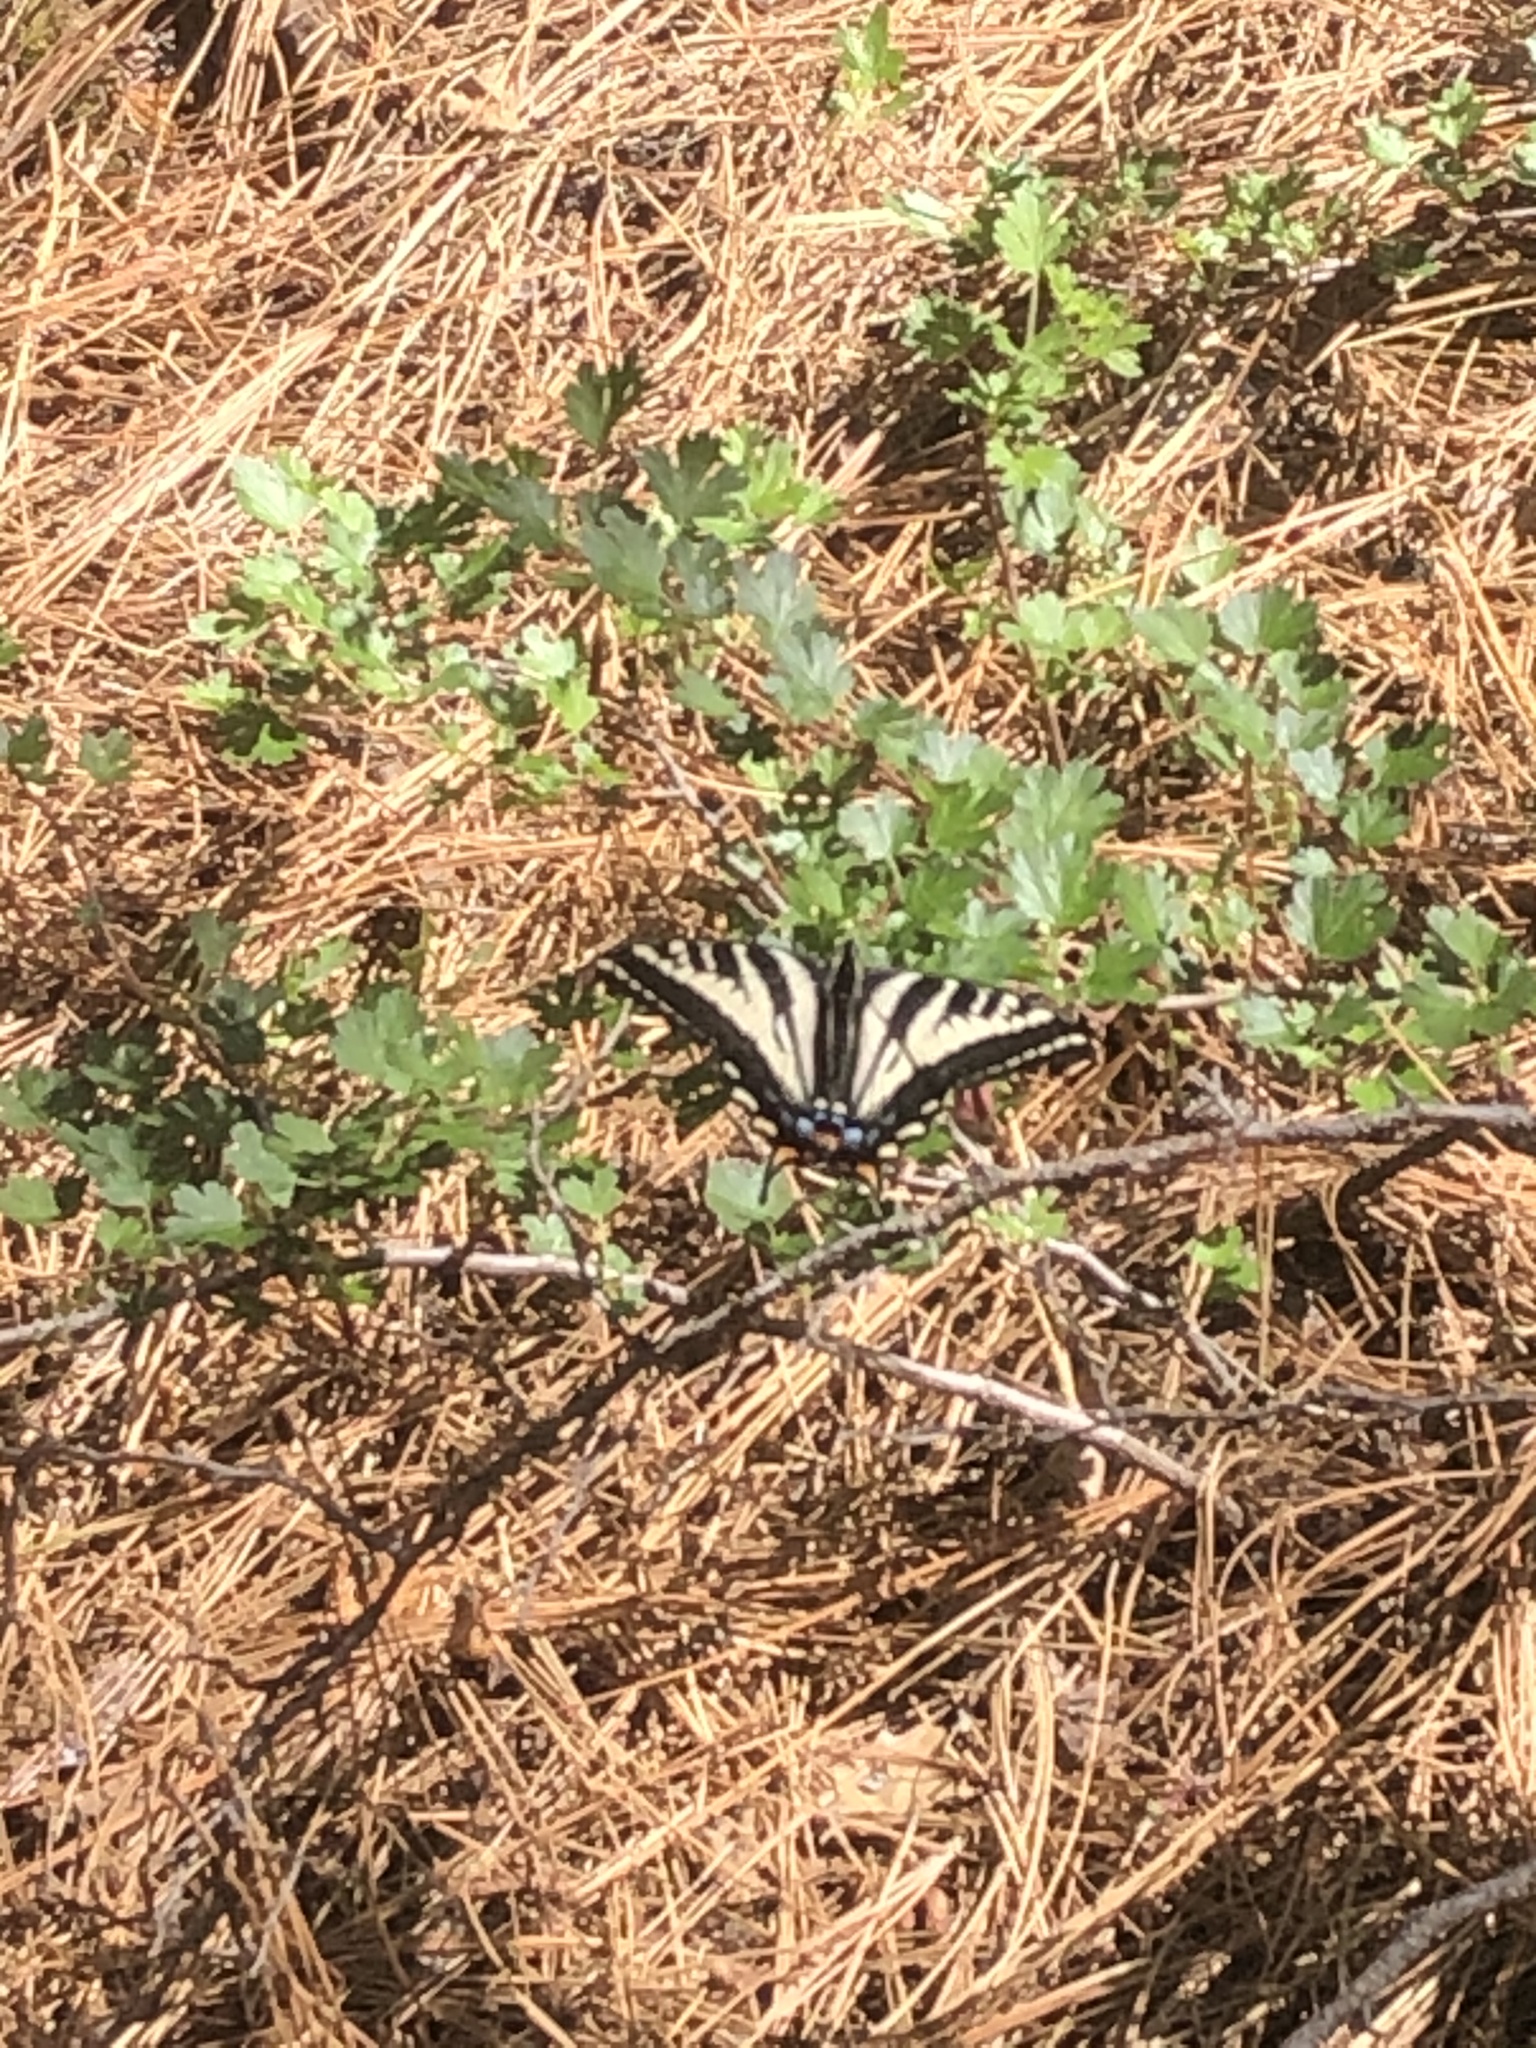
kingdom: Animalia
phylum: Arthropoda
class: Insecta
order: Lepidoptera
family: Papilionidae
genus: Papilio
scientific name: Papilio eurymedon
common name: Pale tiger swallowtail
